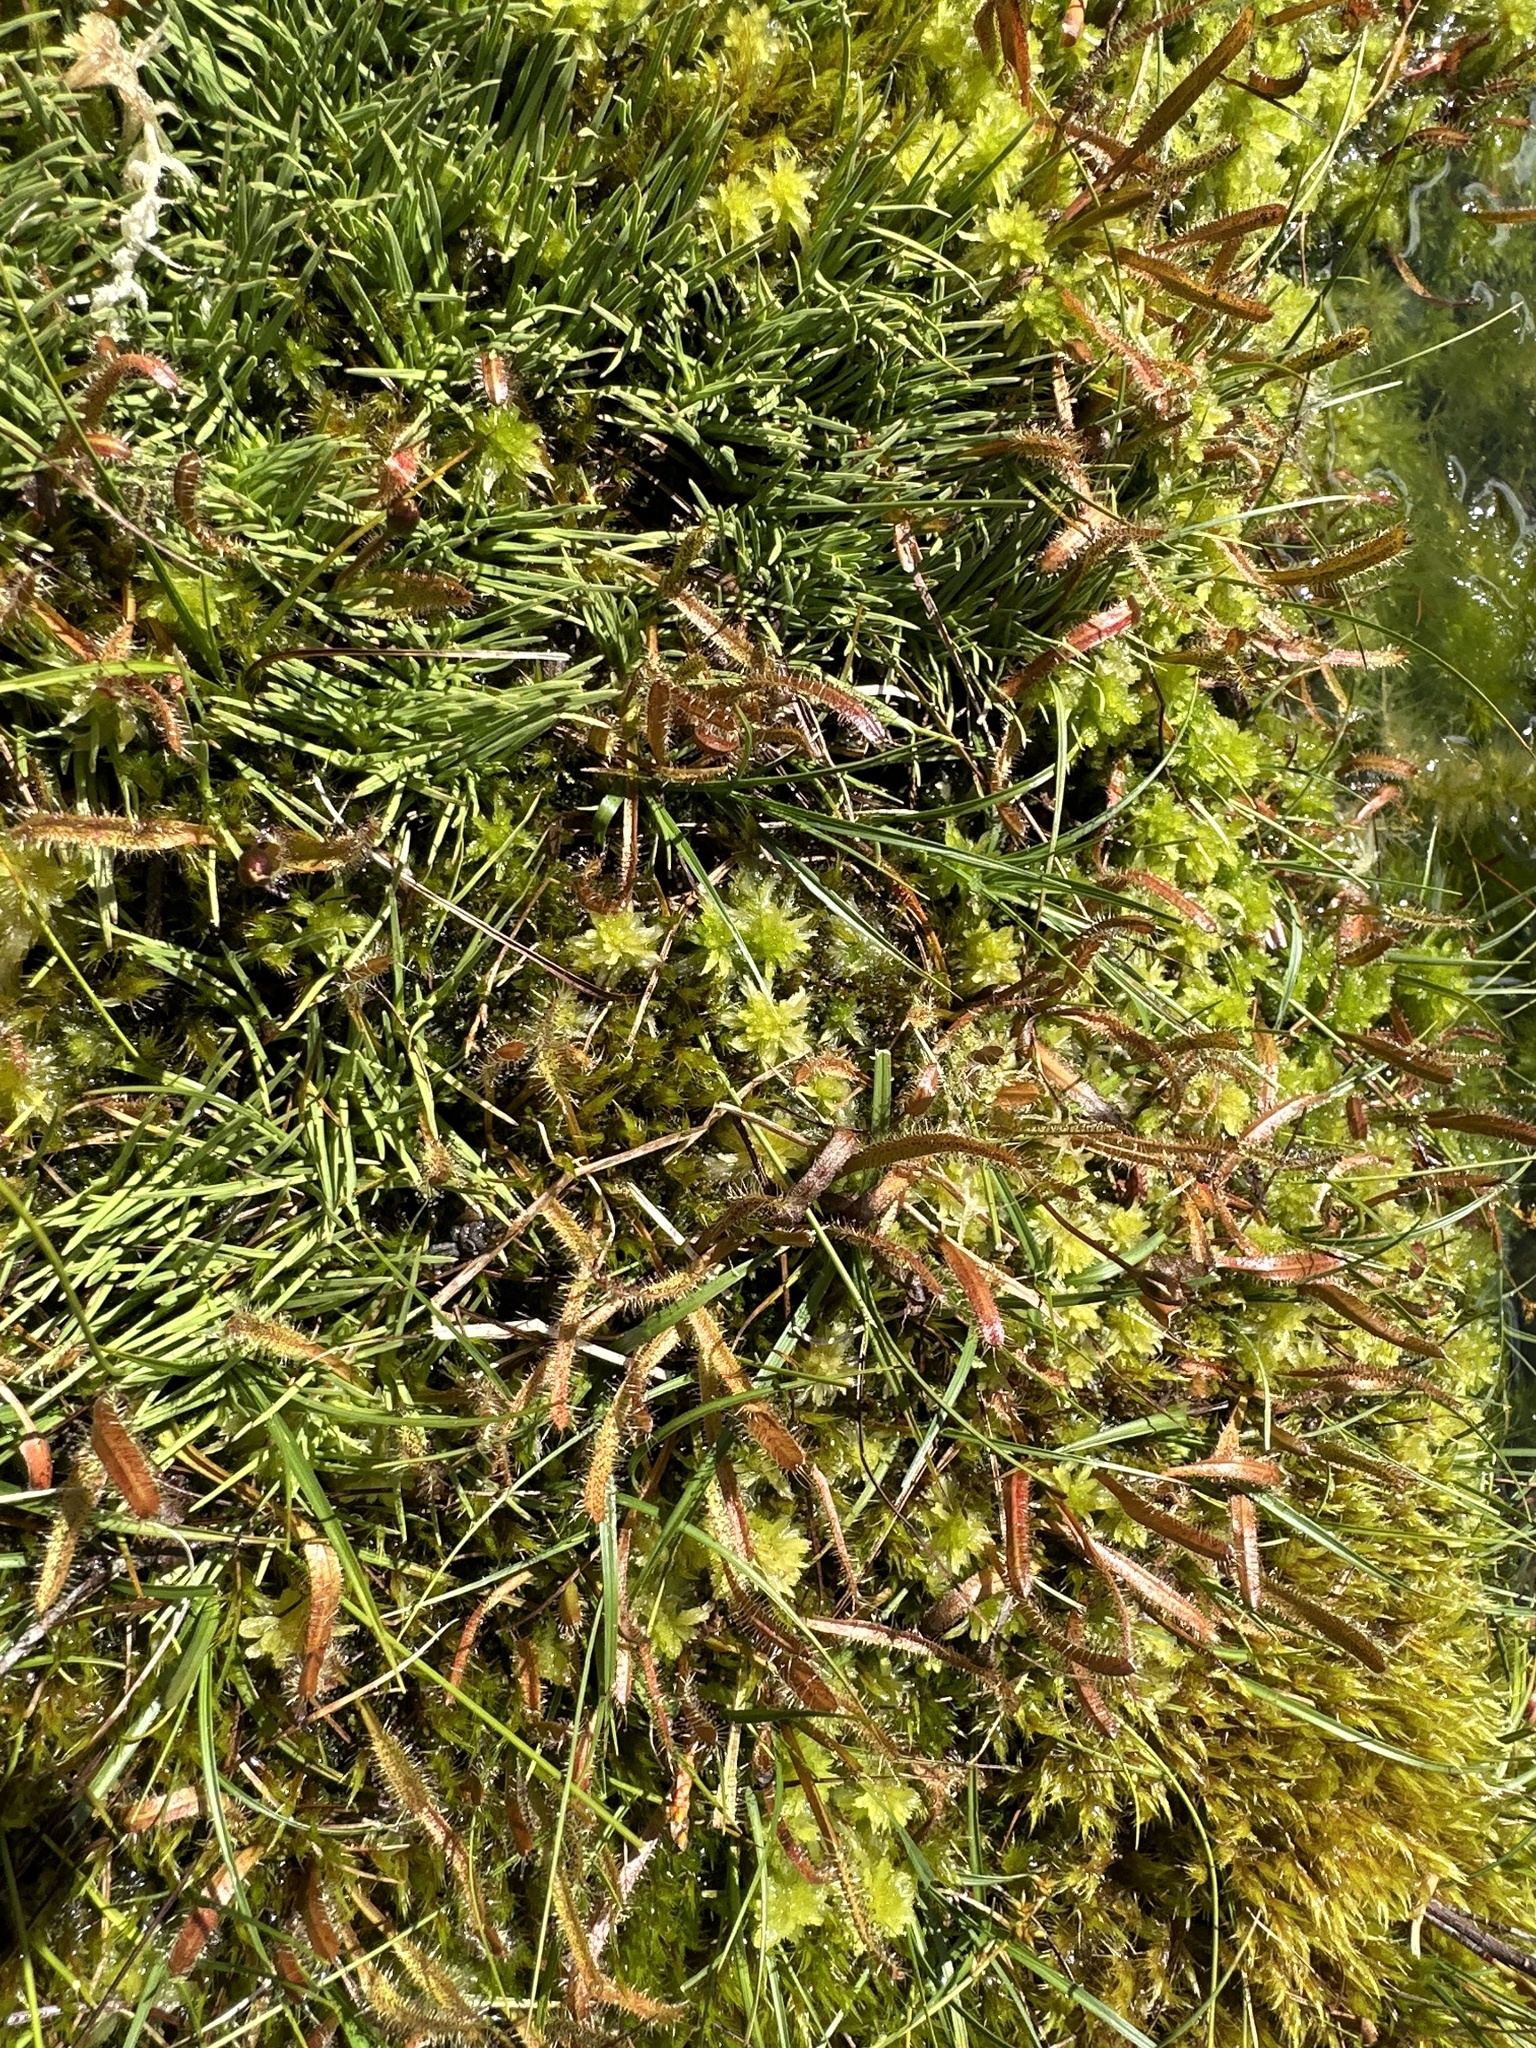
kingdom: Plantae
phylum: Tracheophyta
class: Magnoliopsida
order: Caryophyllales
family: Droseraceae
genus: Drosera
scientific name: Drosera arcturi
